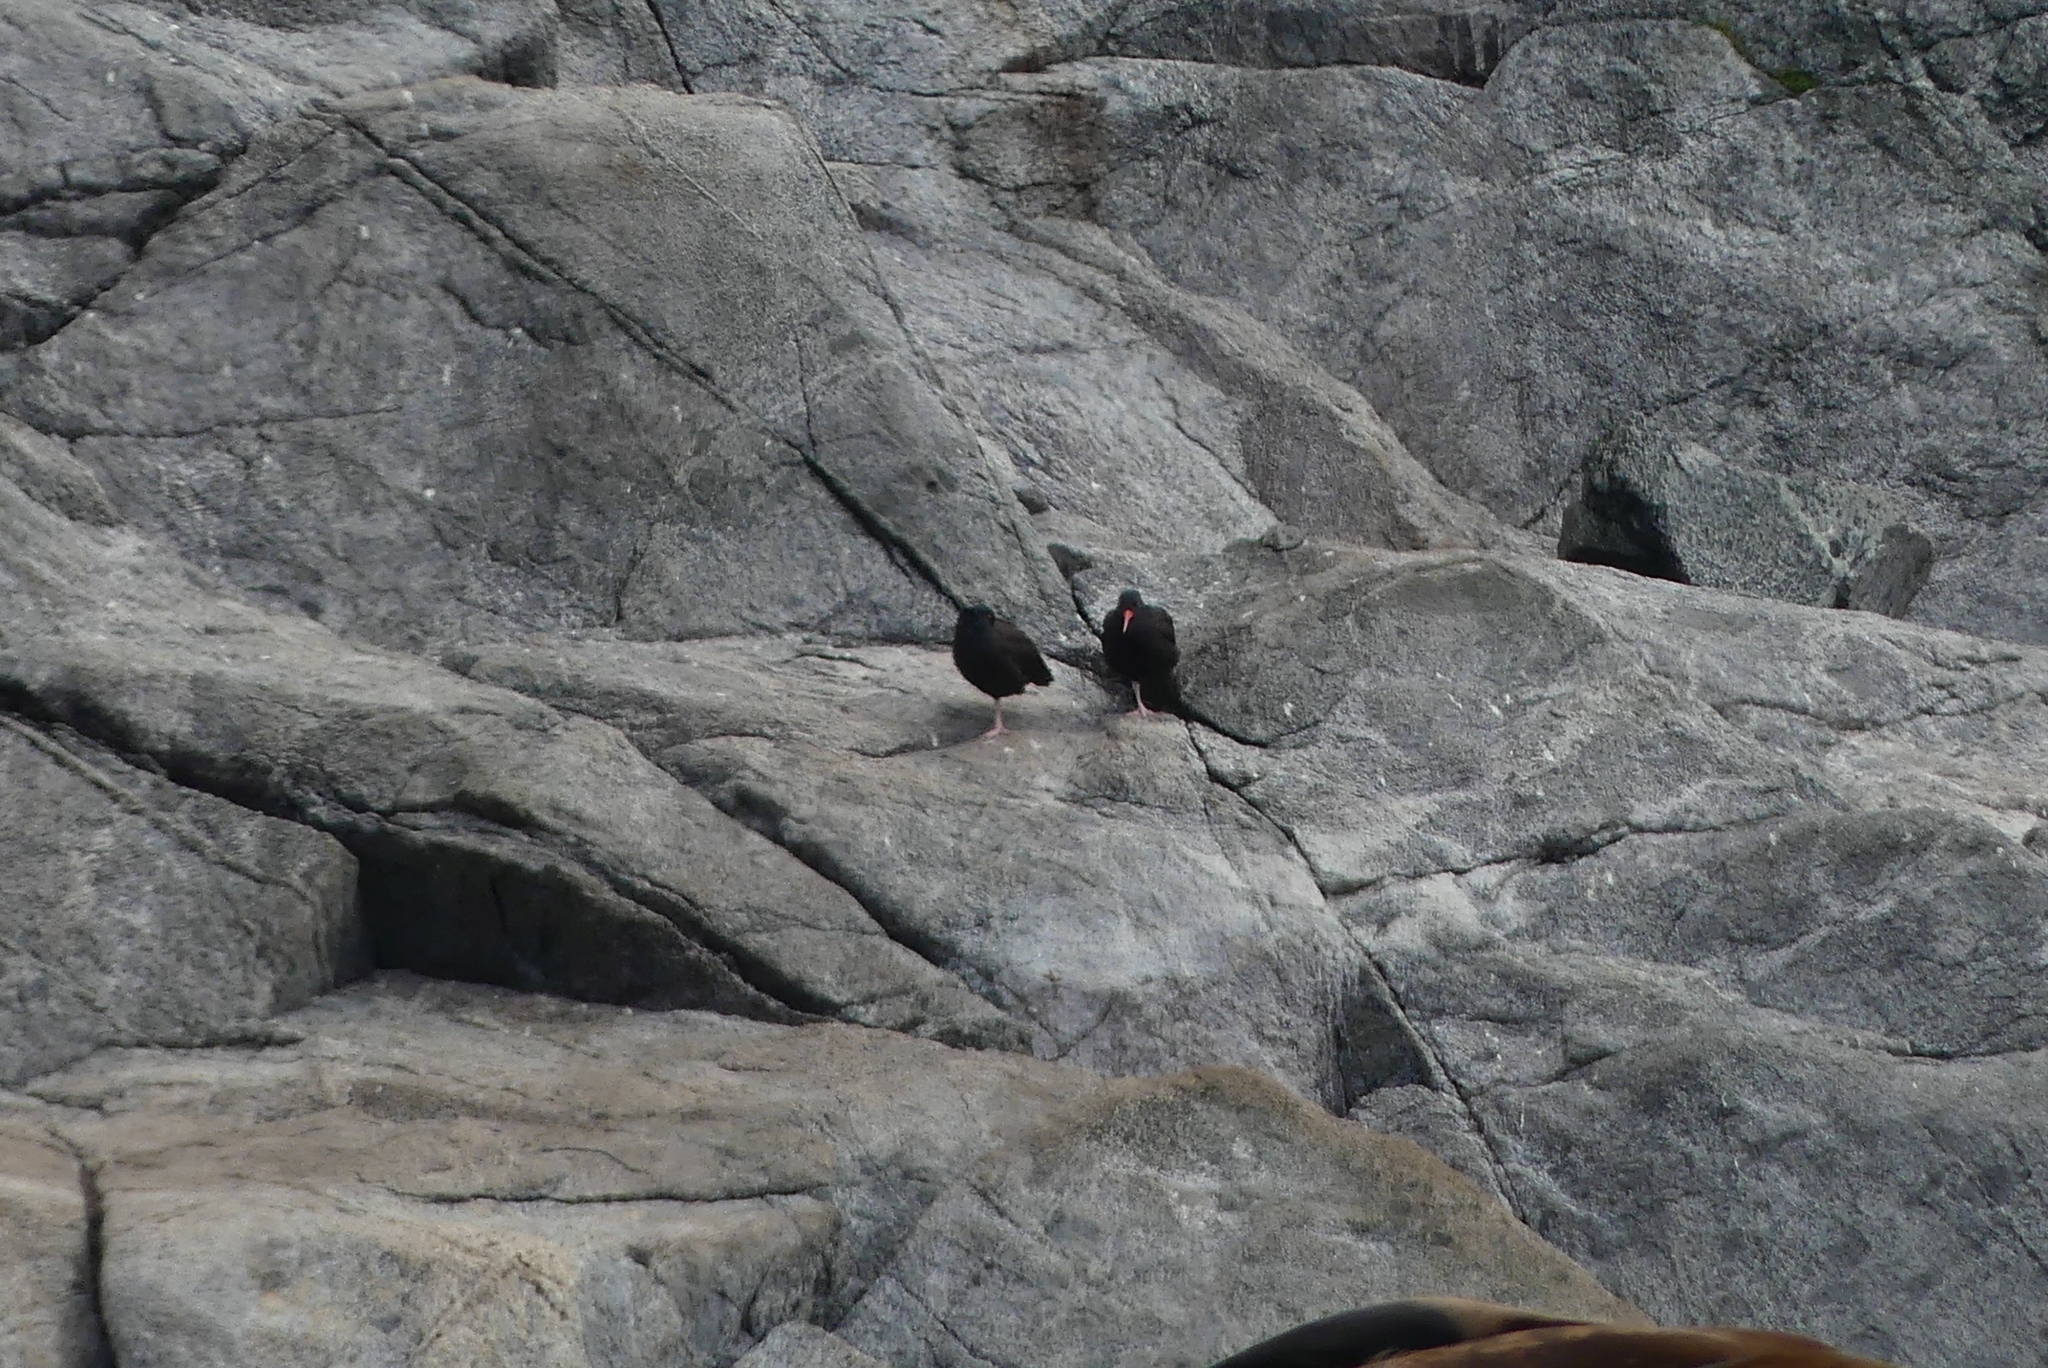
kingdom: Animalia
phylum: Chordata
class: Aves
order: Charadriiformes
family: Haematopodidae
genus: Haematopus
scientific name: Haematopus bachmani
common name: Black oystercatcher
